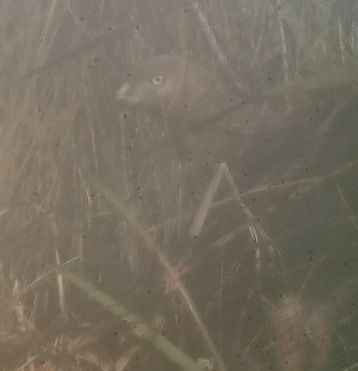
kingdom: Animalia
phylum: Chordata
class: Aves
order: Accipitriformes
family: Accipitridae
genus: Circus
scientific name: Circus approximans
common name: Swamp harrier
